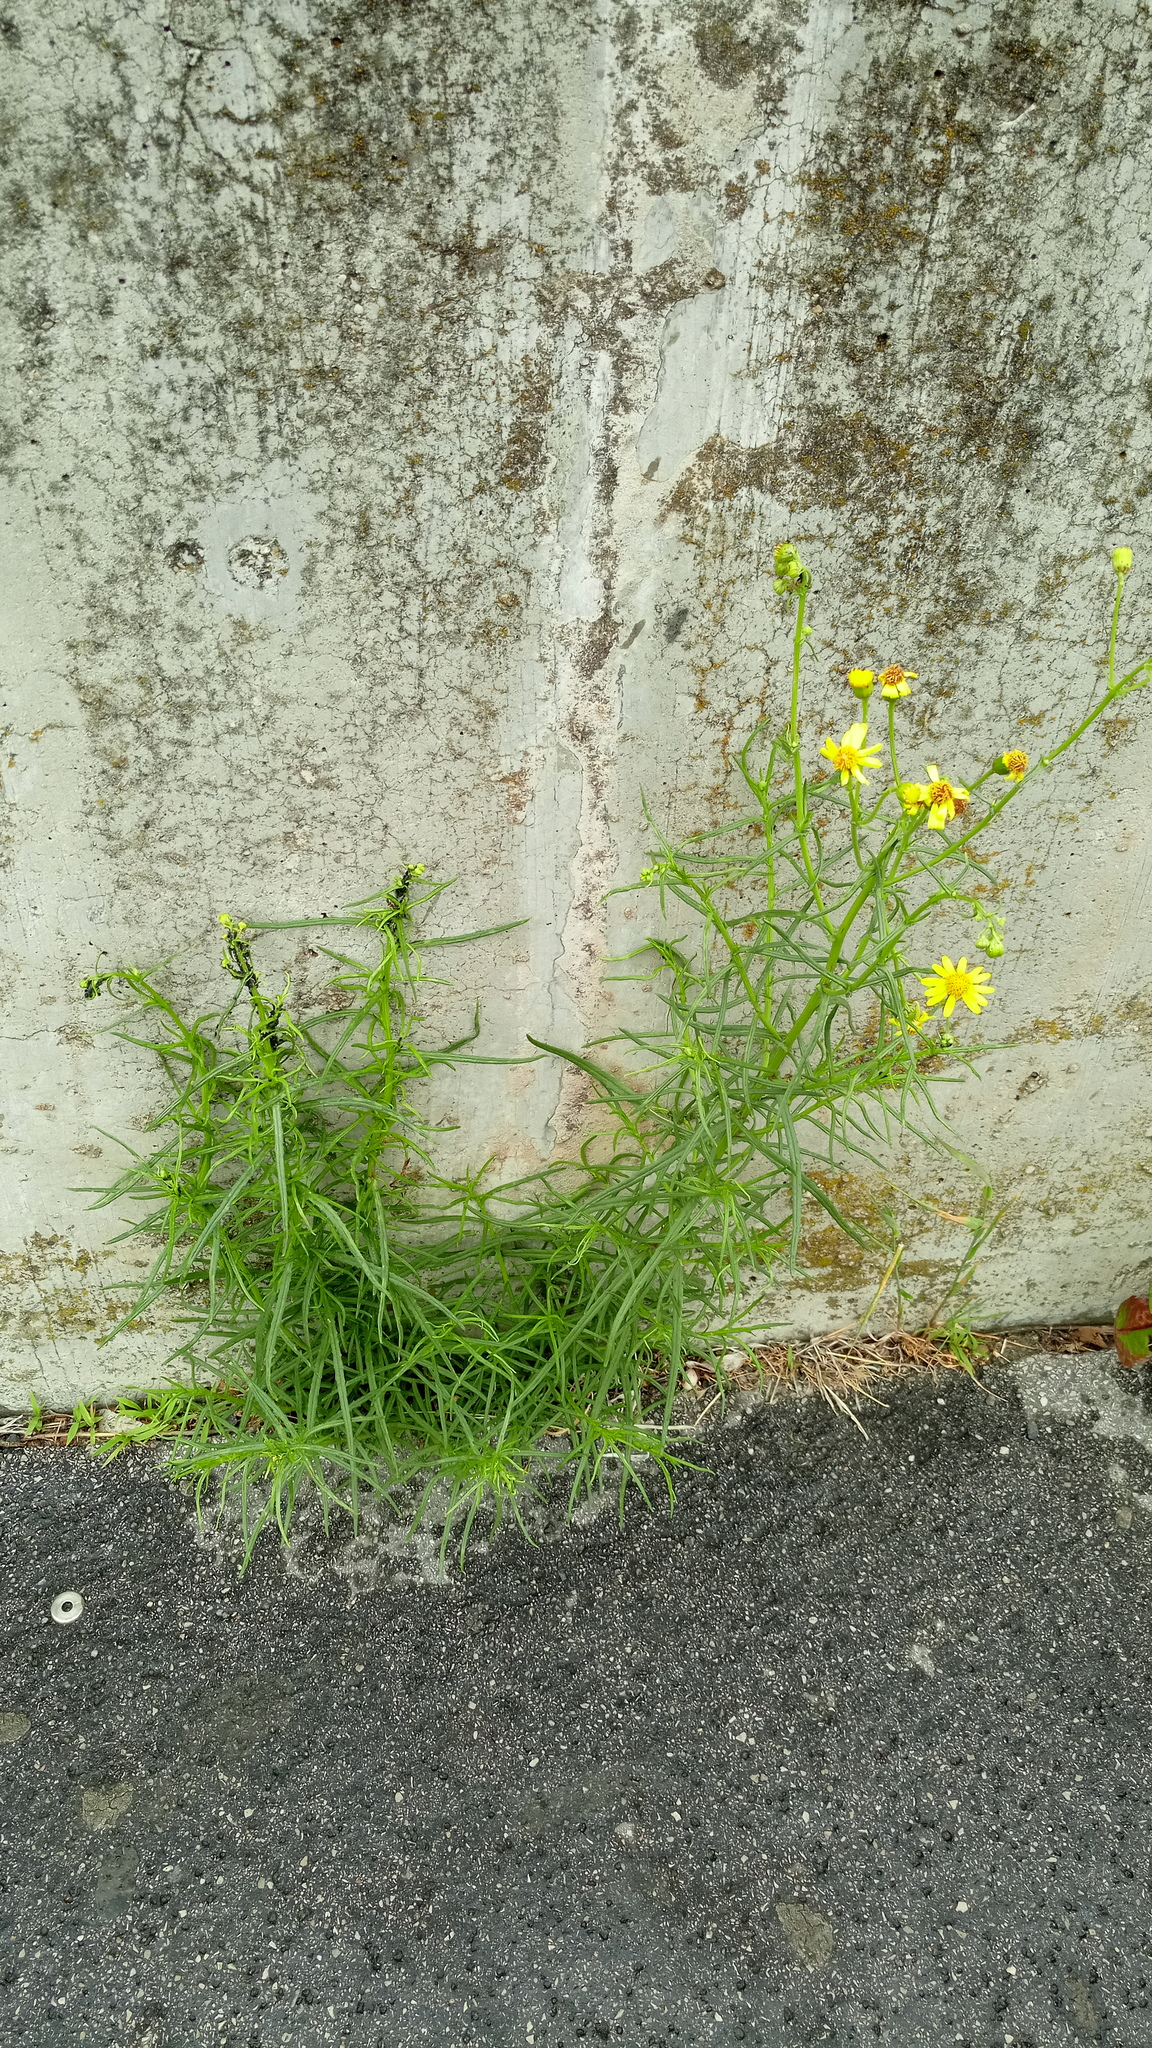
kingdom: Plantae
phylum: Tracheophyta
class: Magnoliopsida
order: Asterales
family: Asteraceae
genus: Senecio
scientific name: Senecio inaequidens
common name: Narrow-leaved ragwort
